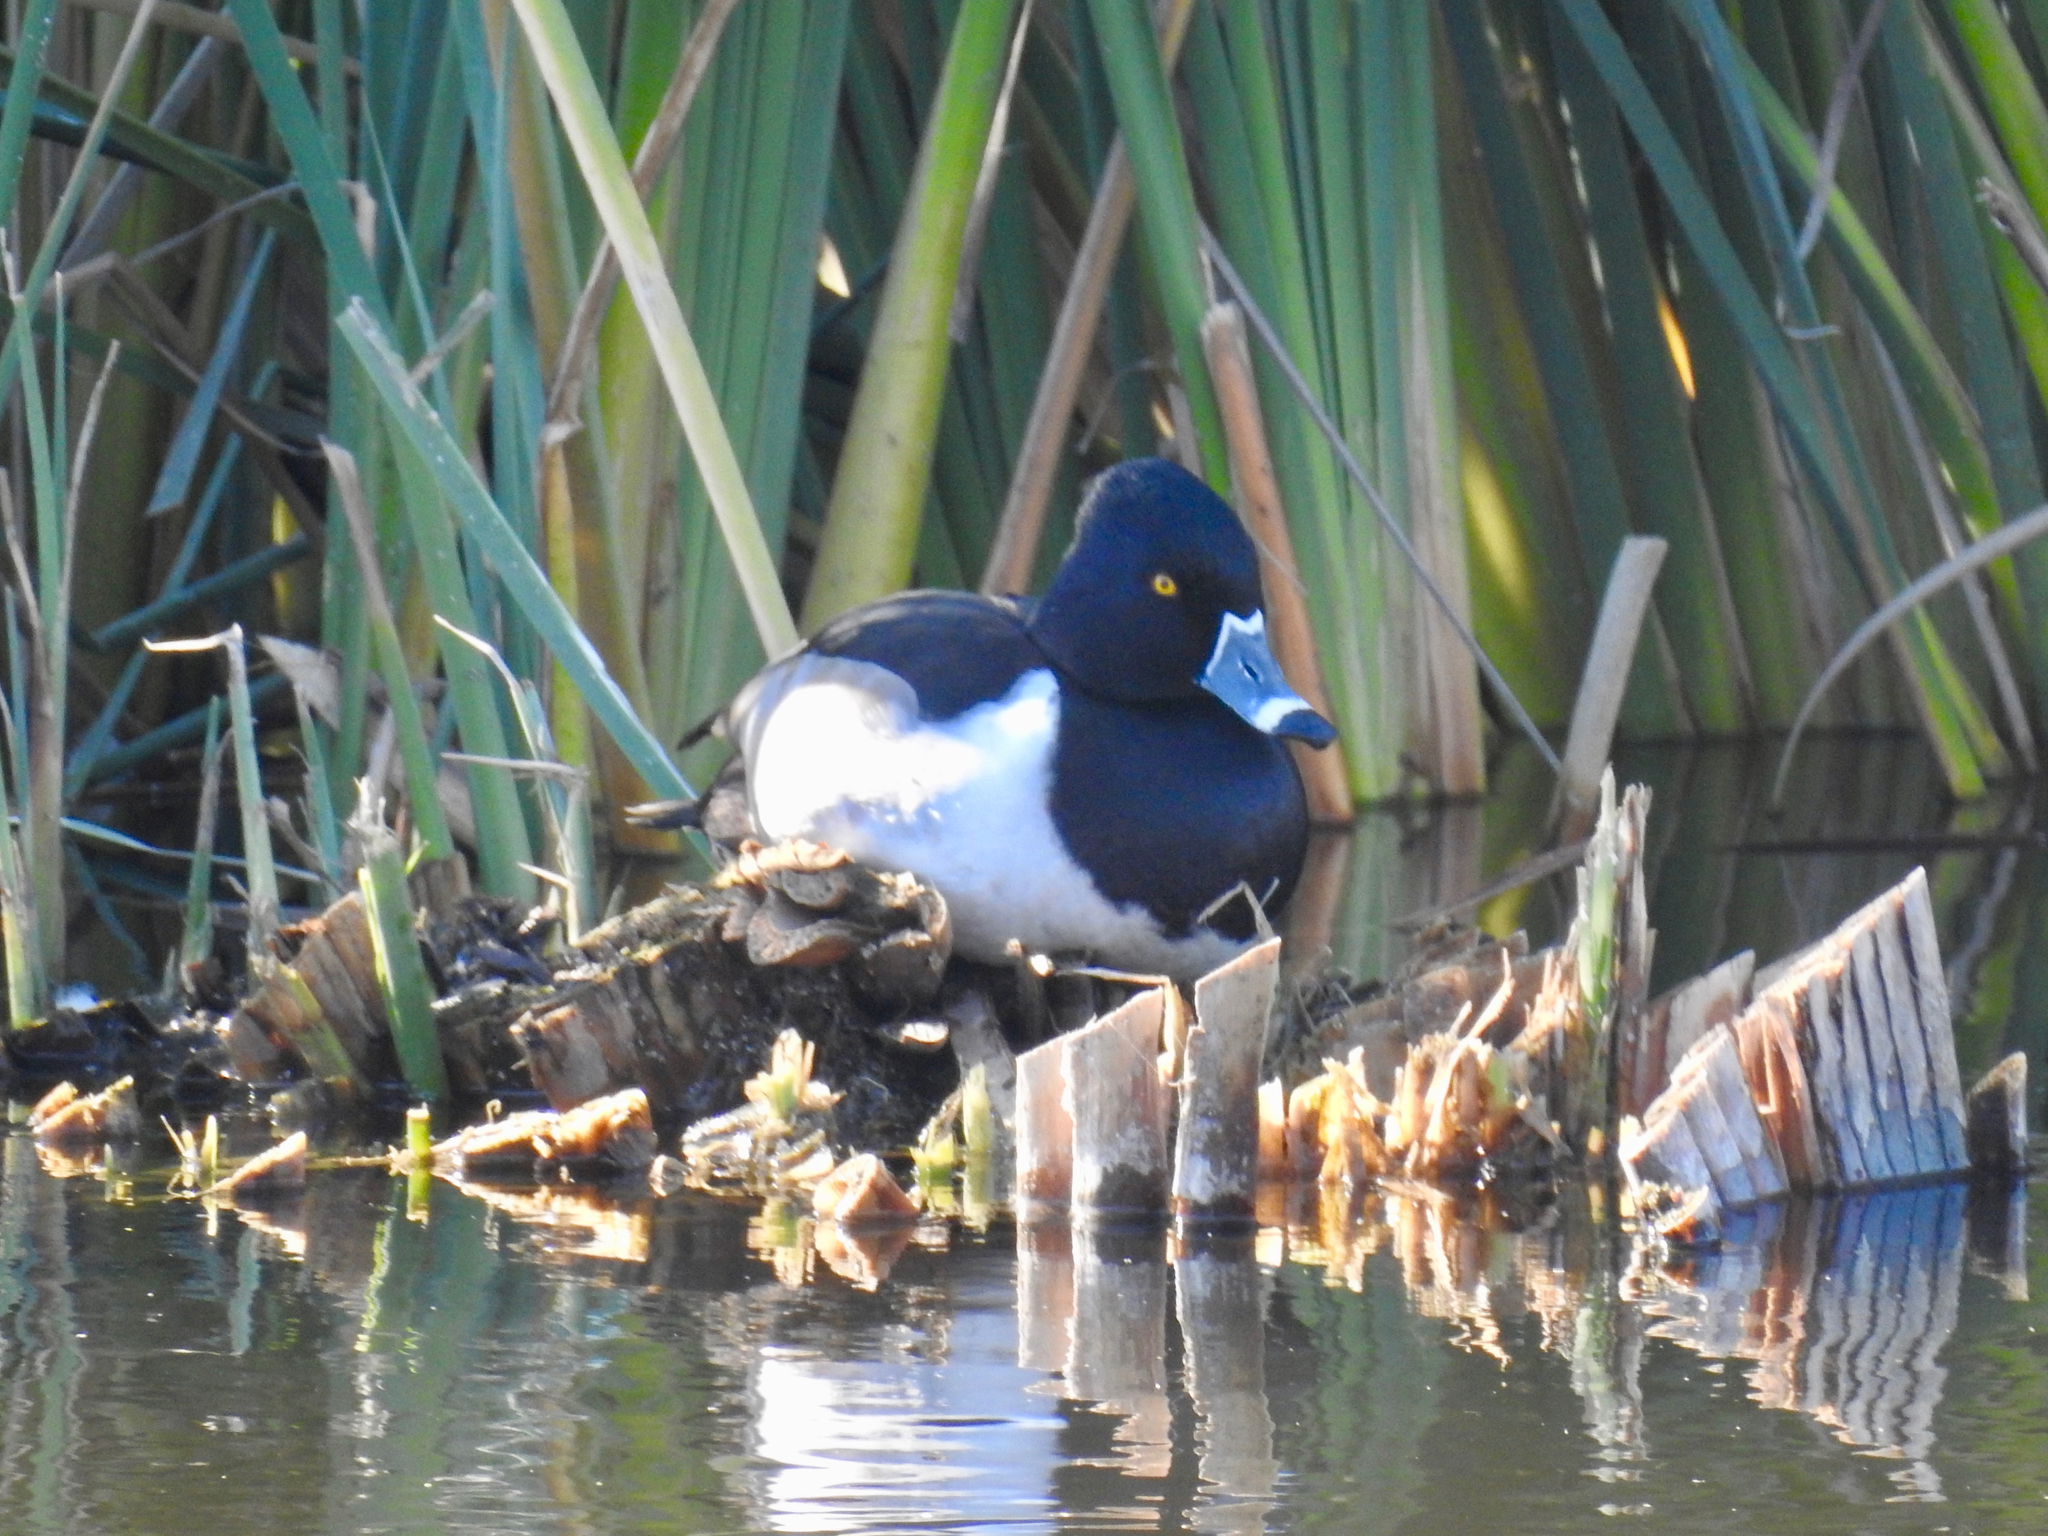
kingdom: Animalia
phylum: Chordata
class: Aves
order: Anseriformes
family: Anatidae
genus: Aythya
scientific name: Aythya collaris
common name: Ring-necked duck
